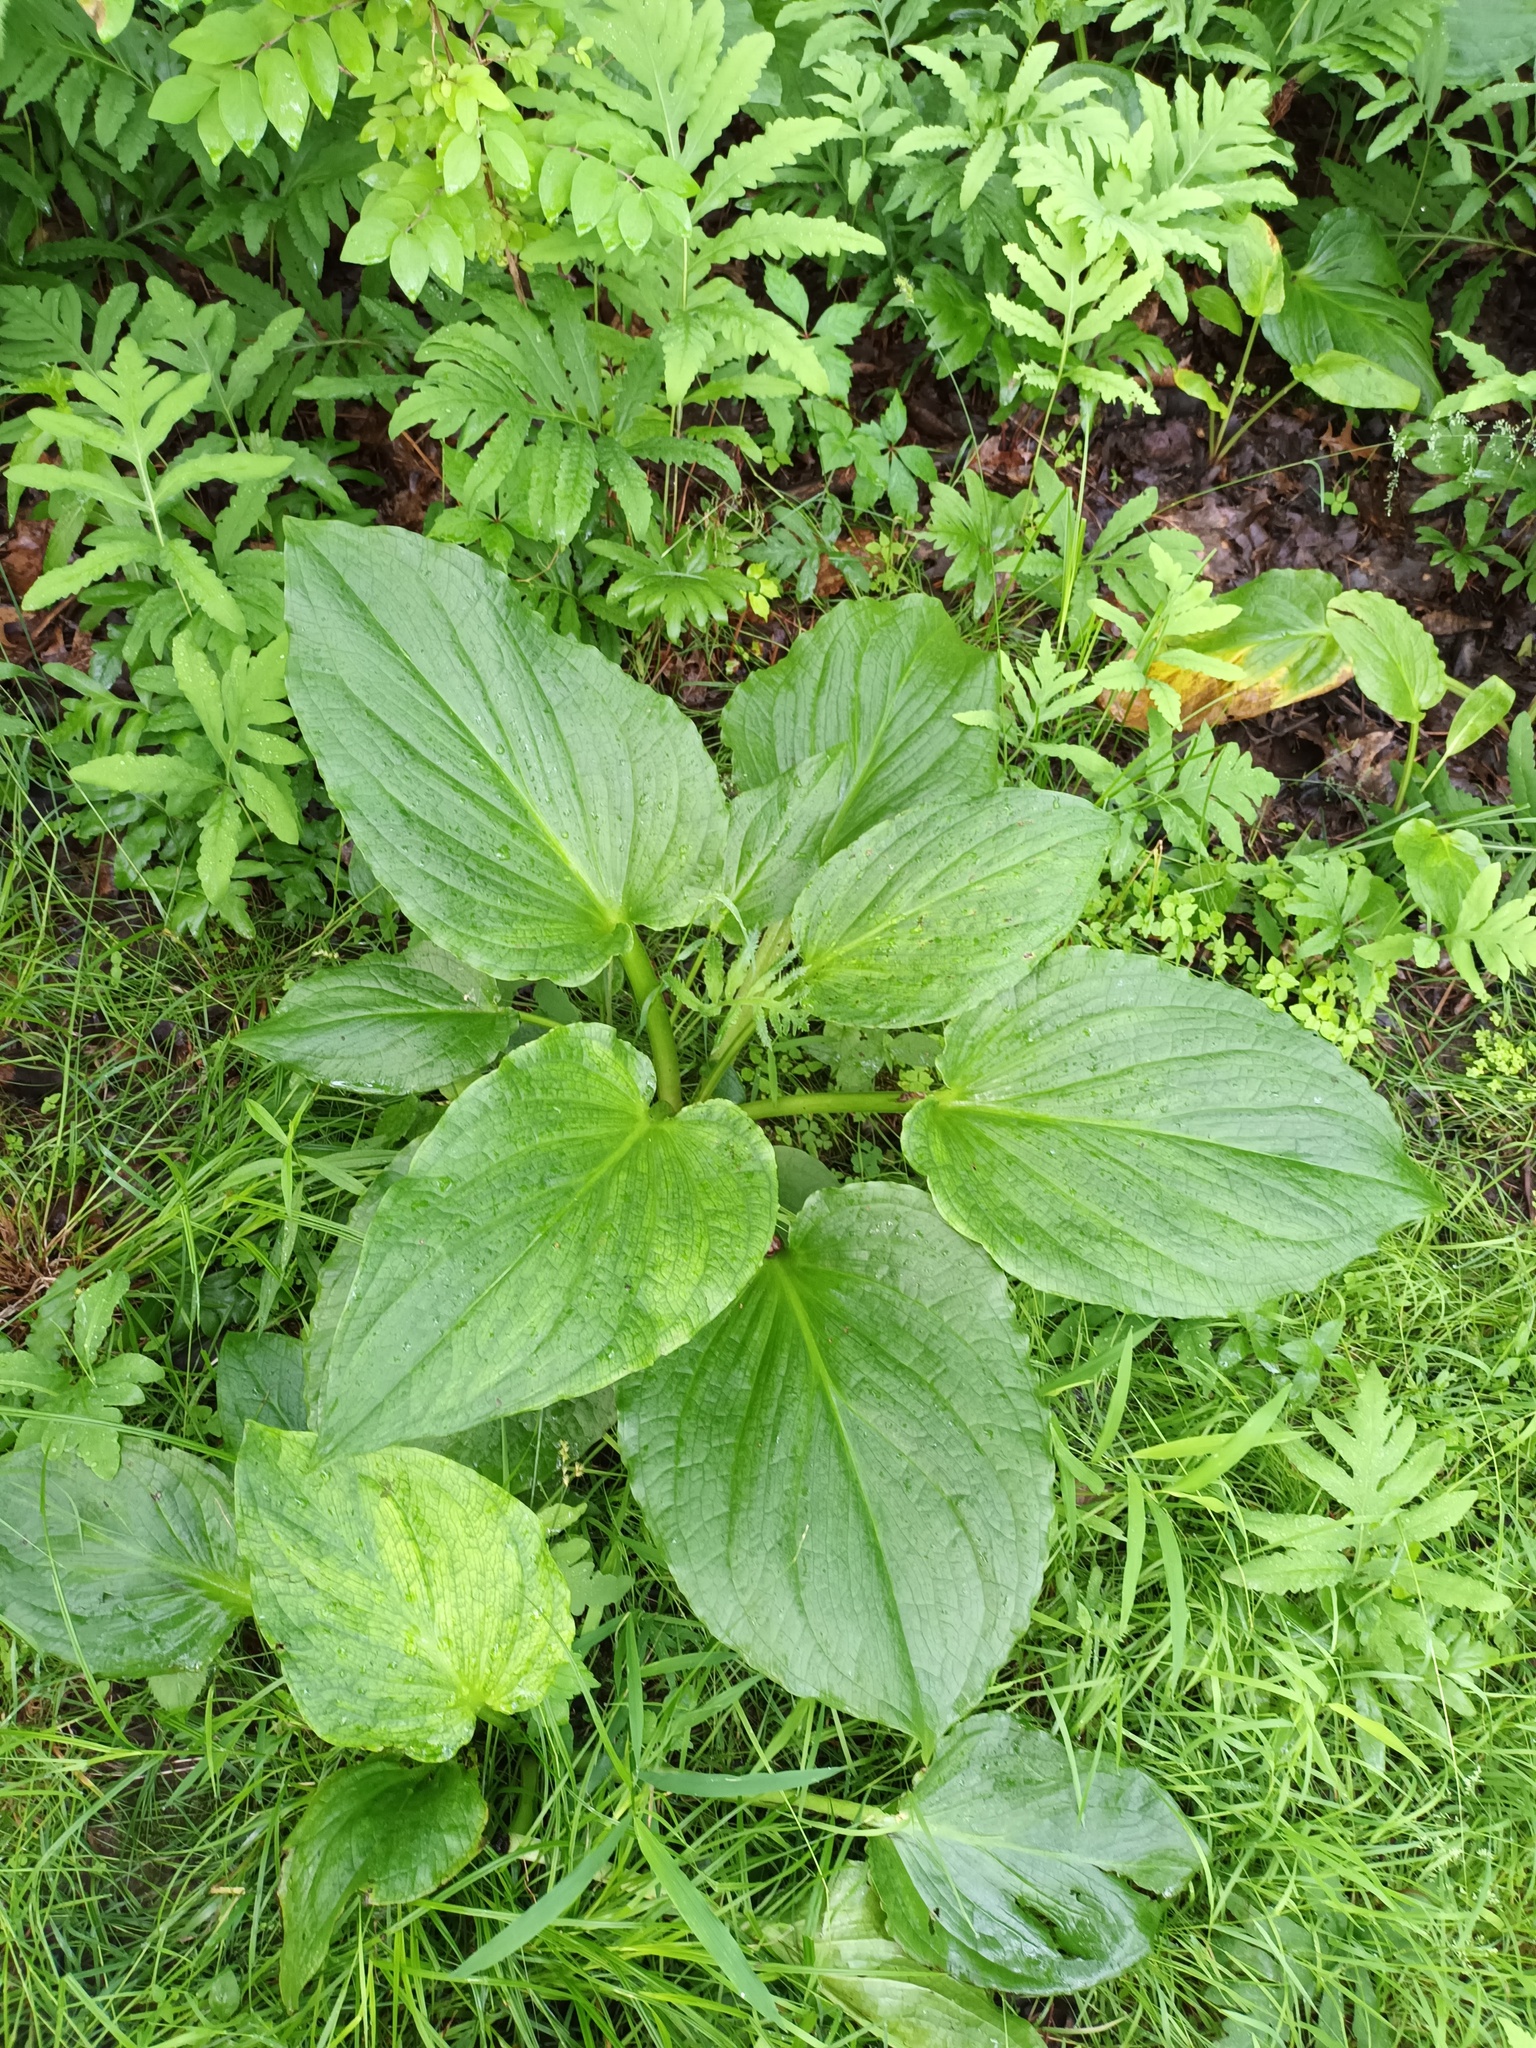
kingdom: Plantae
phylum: Tracheophyta
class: Liliopsida
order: Alismatales
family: Araceae
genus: Symplocarpus
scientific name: Symplocarpus foetidus
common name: Eastern skunk cabbage
